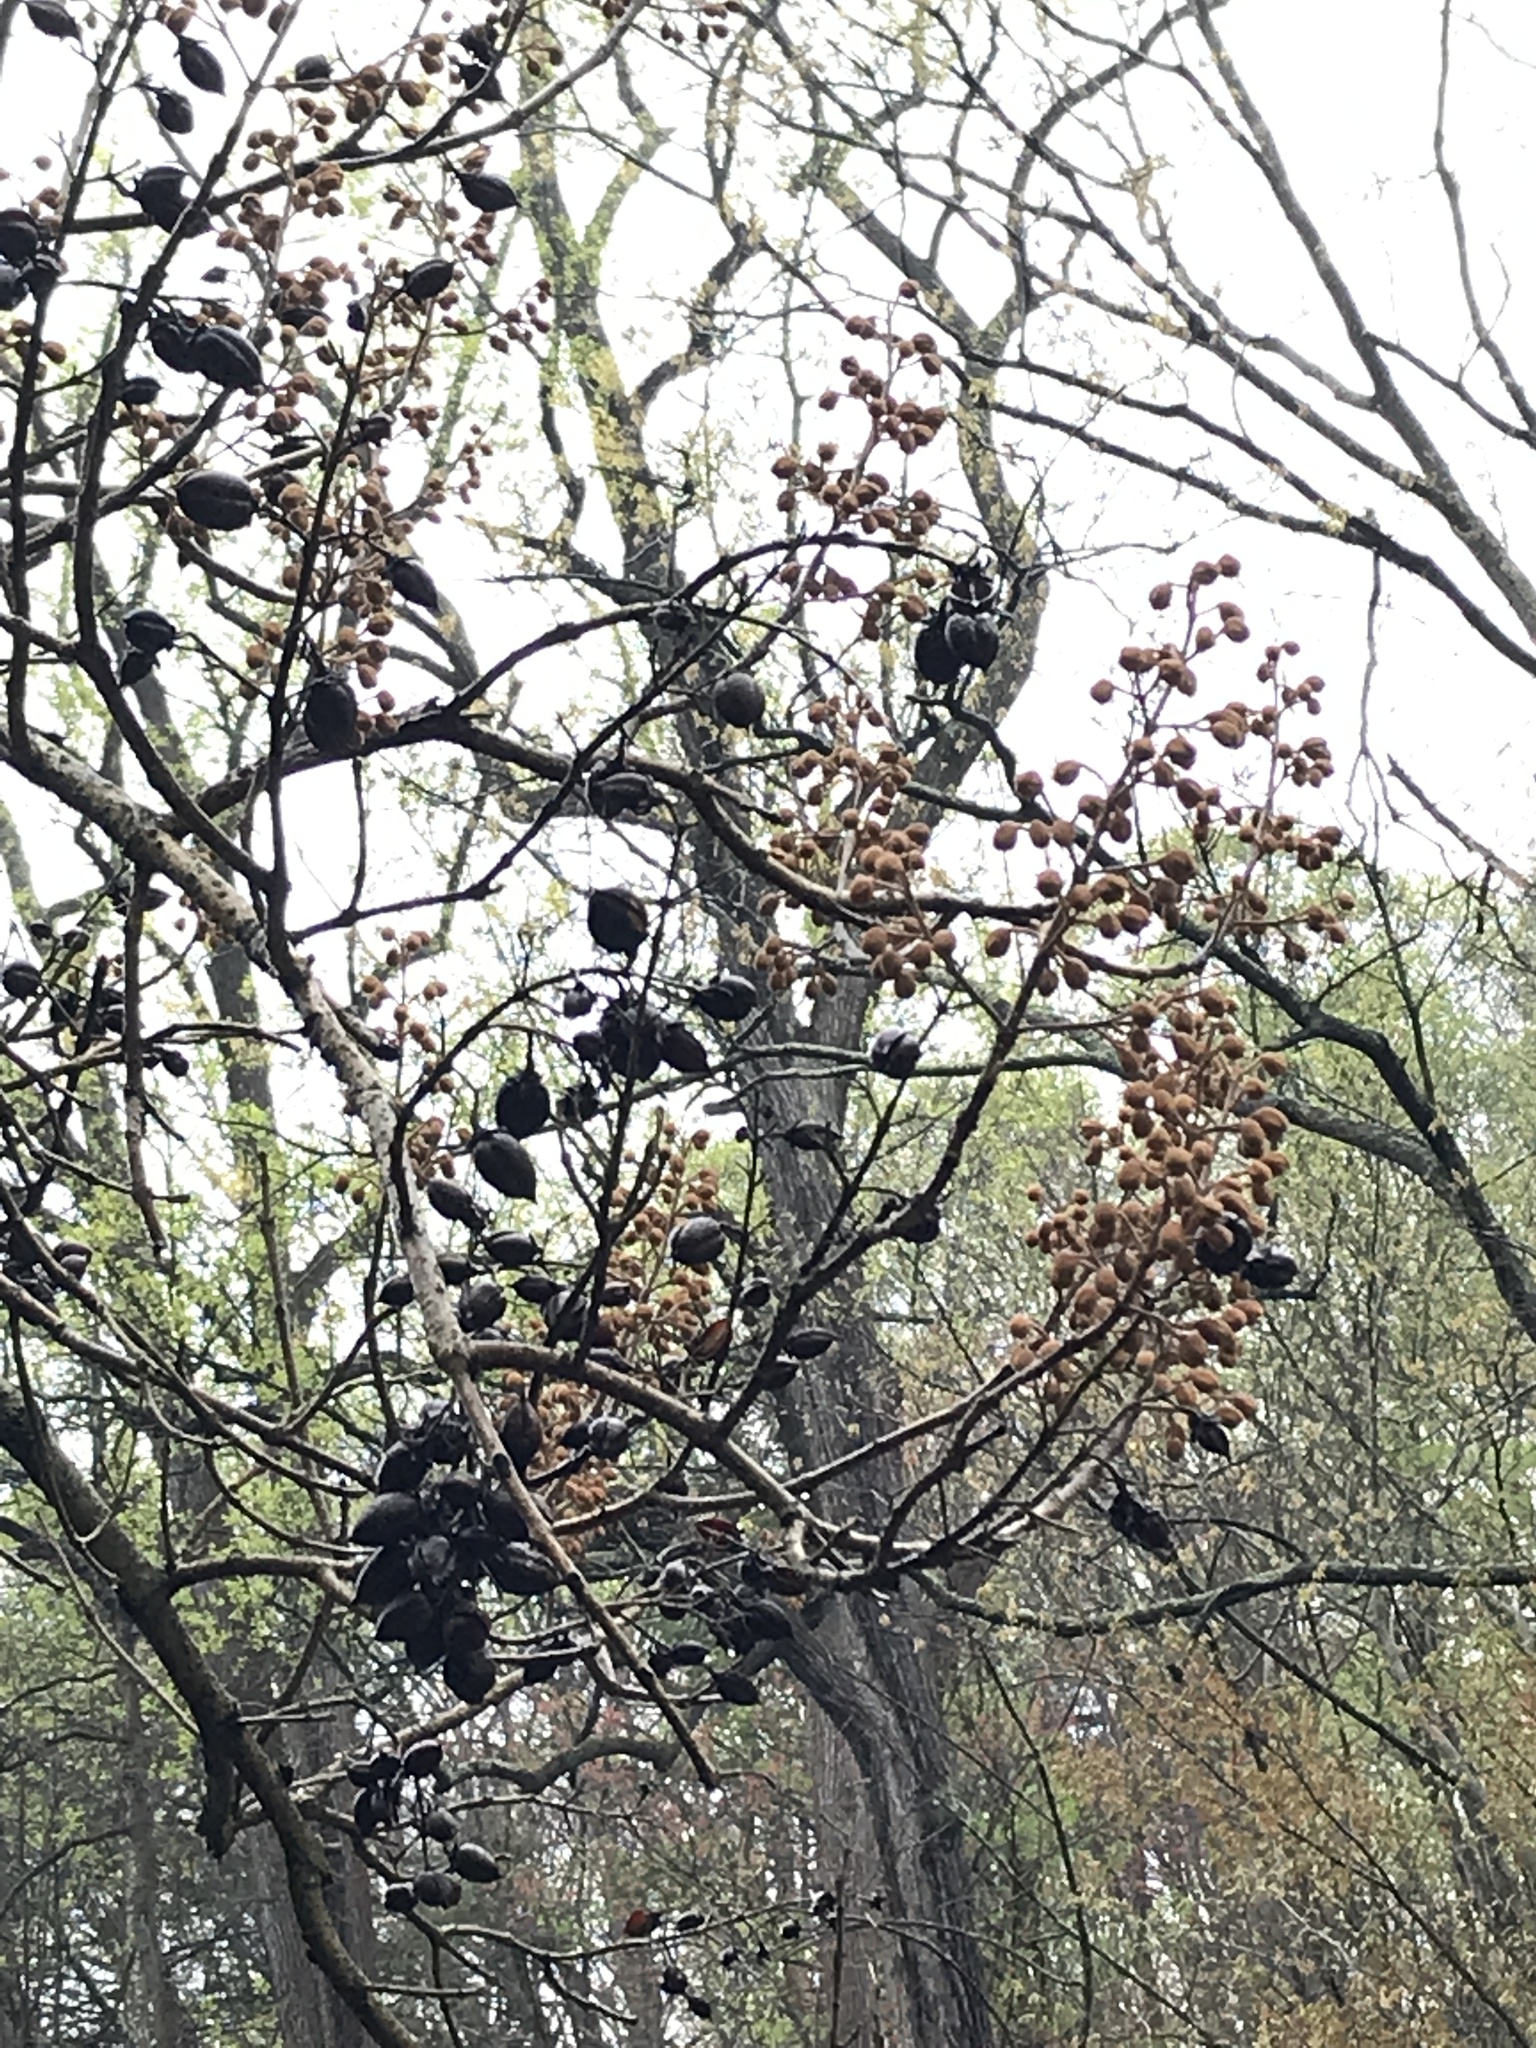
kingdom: Plantae
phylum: Tracheophyta
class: Magnoliopsida
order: Lamiales
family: Paulowniaceae
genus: Paulownia
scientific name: Paulownia tomentosa
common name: Foxglove-tree
